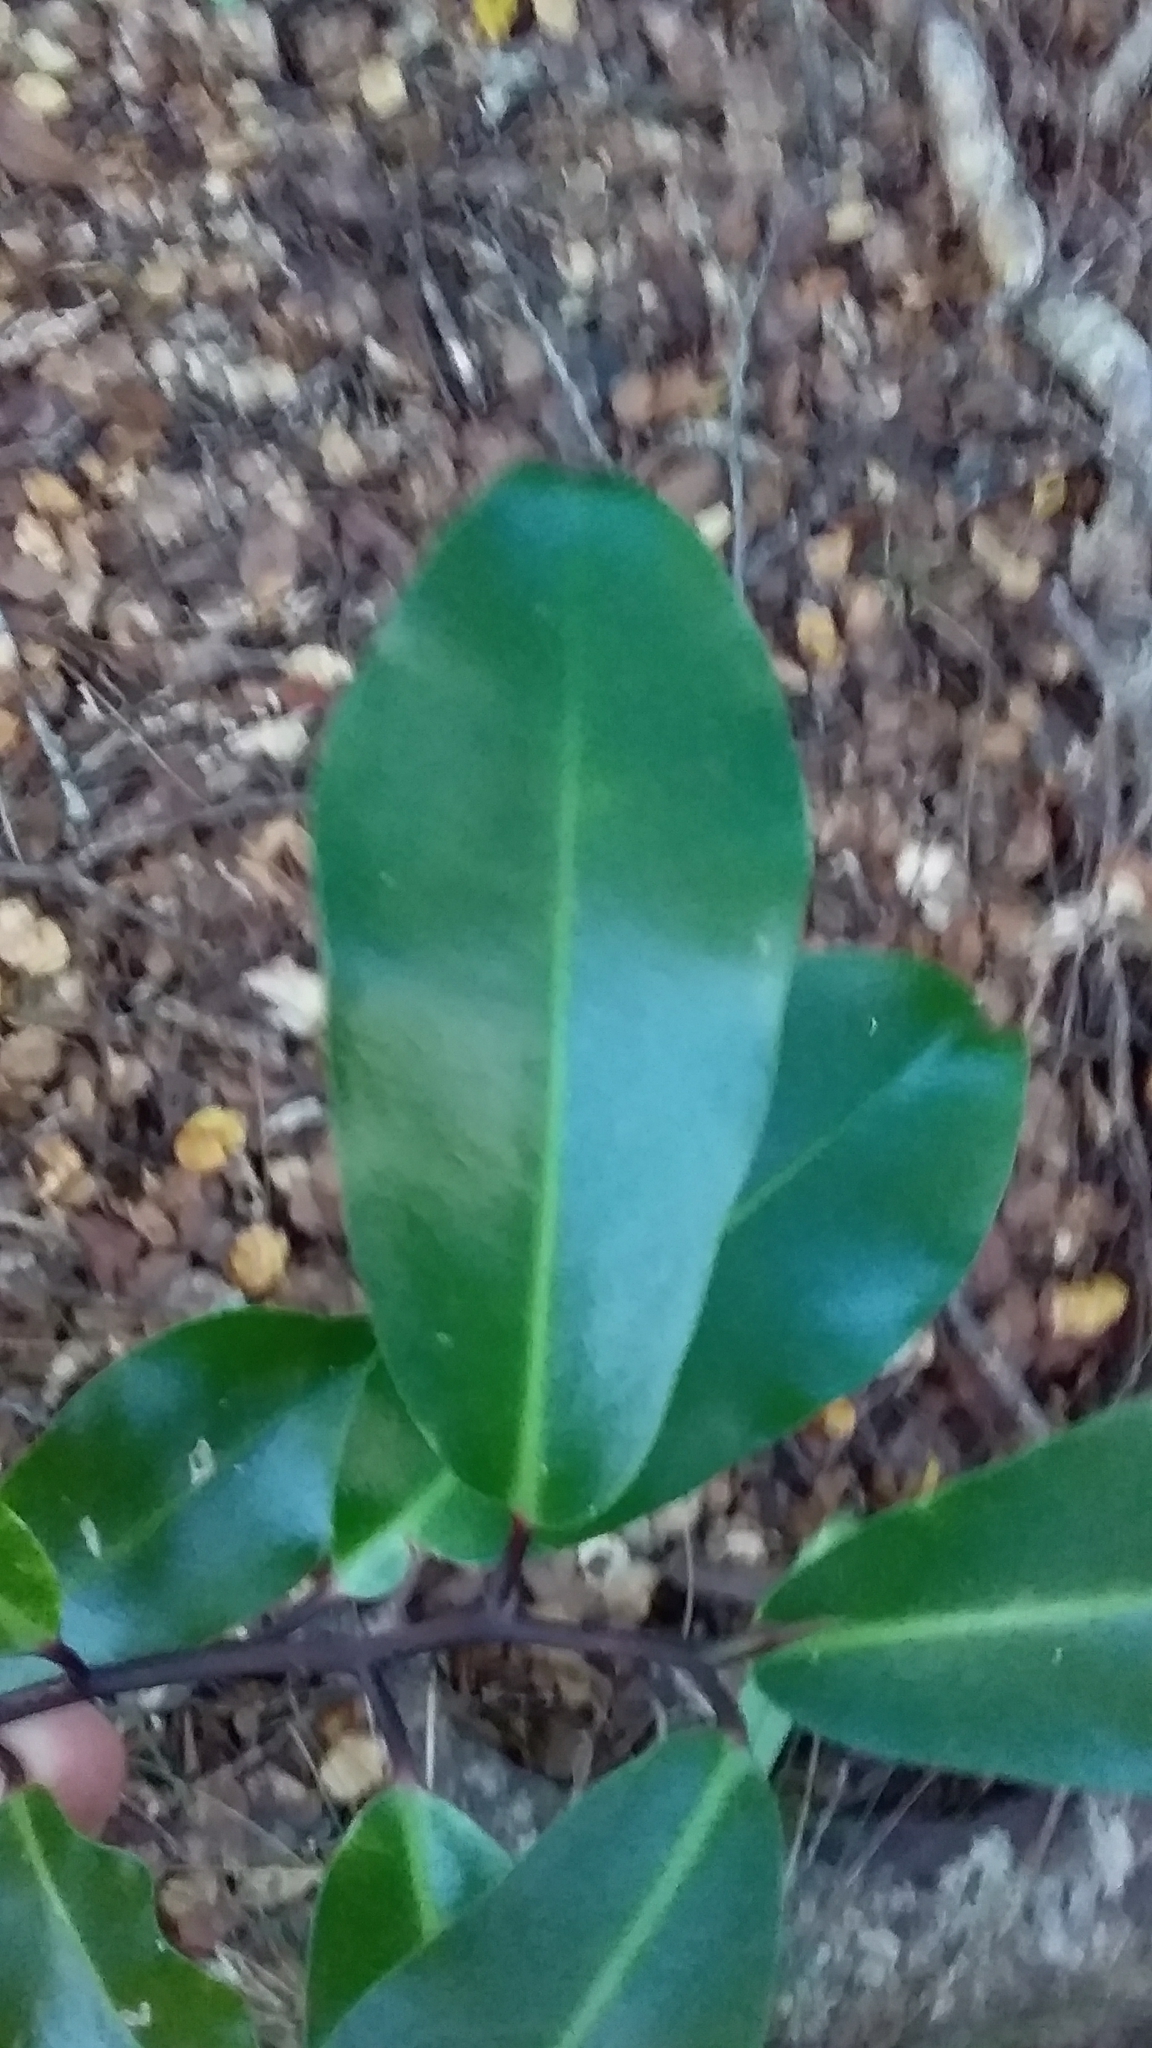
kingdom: Plantae
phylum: Tracheophyta
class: Magnoliopsida
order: Canellales
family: Winteraceae
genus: Pseudowintera
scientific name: Pseudowintera axillaris
